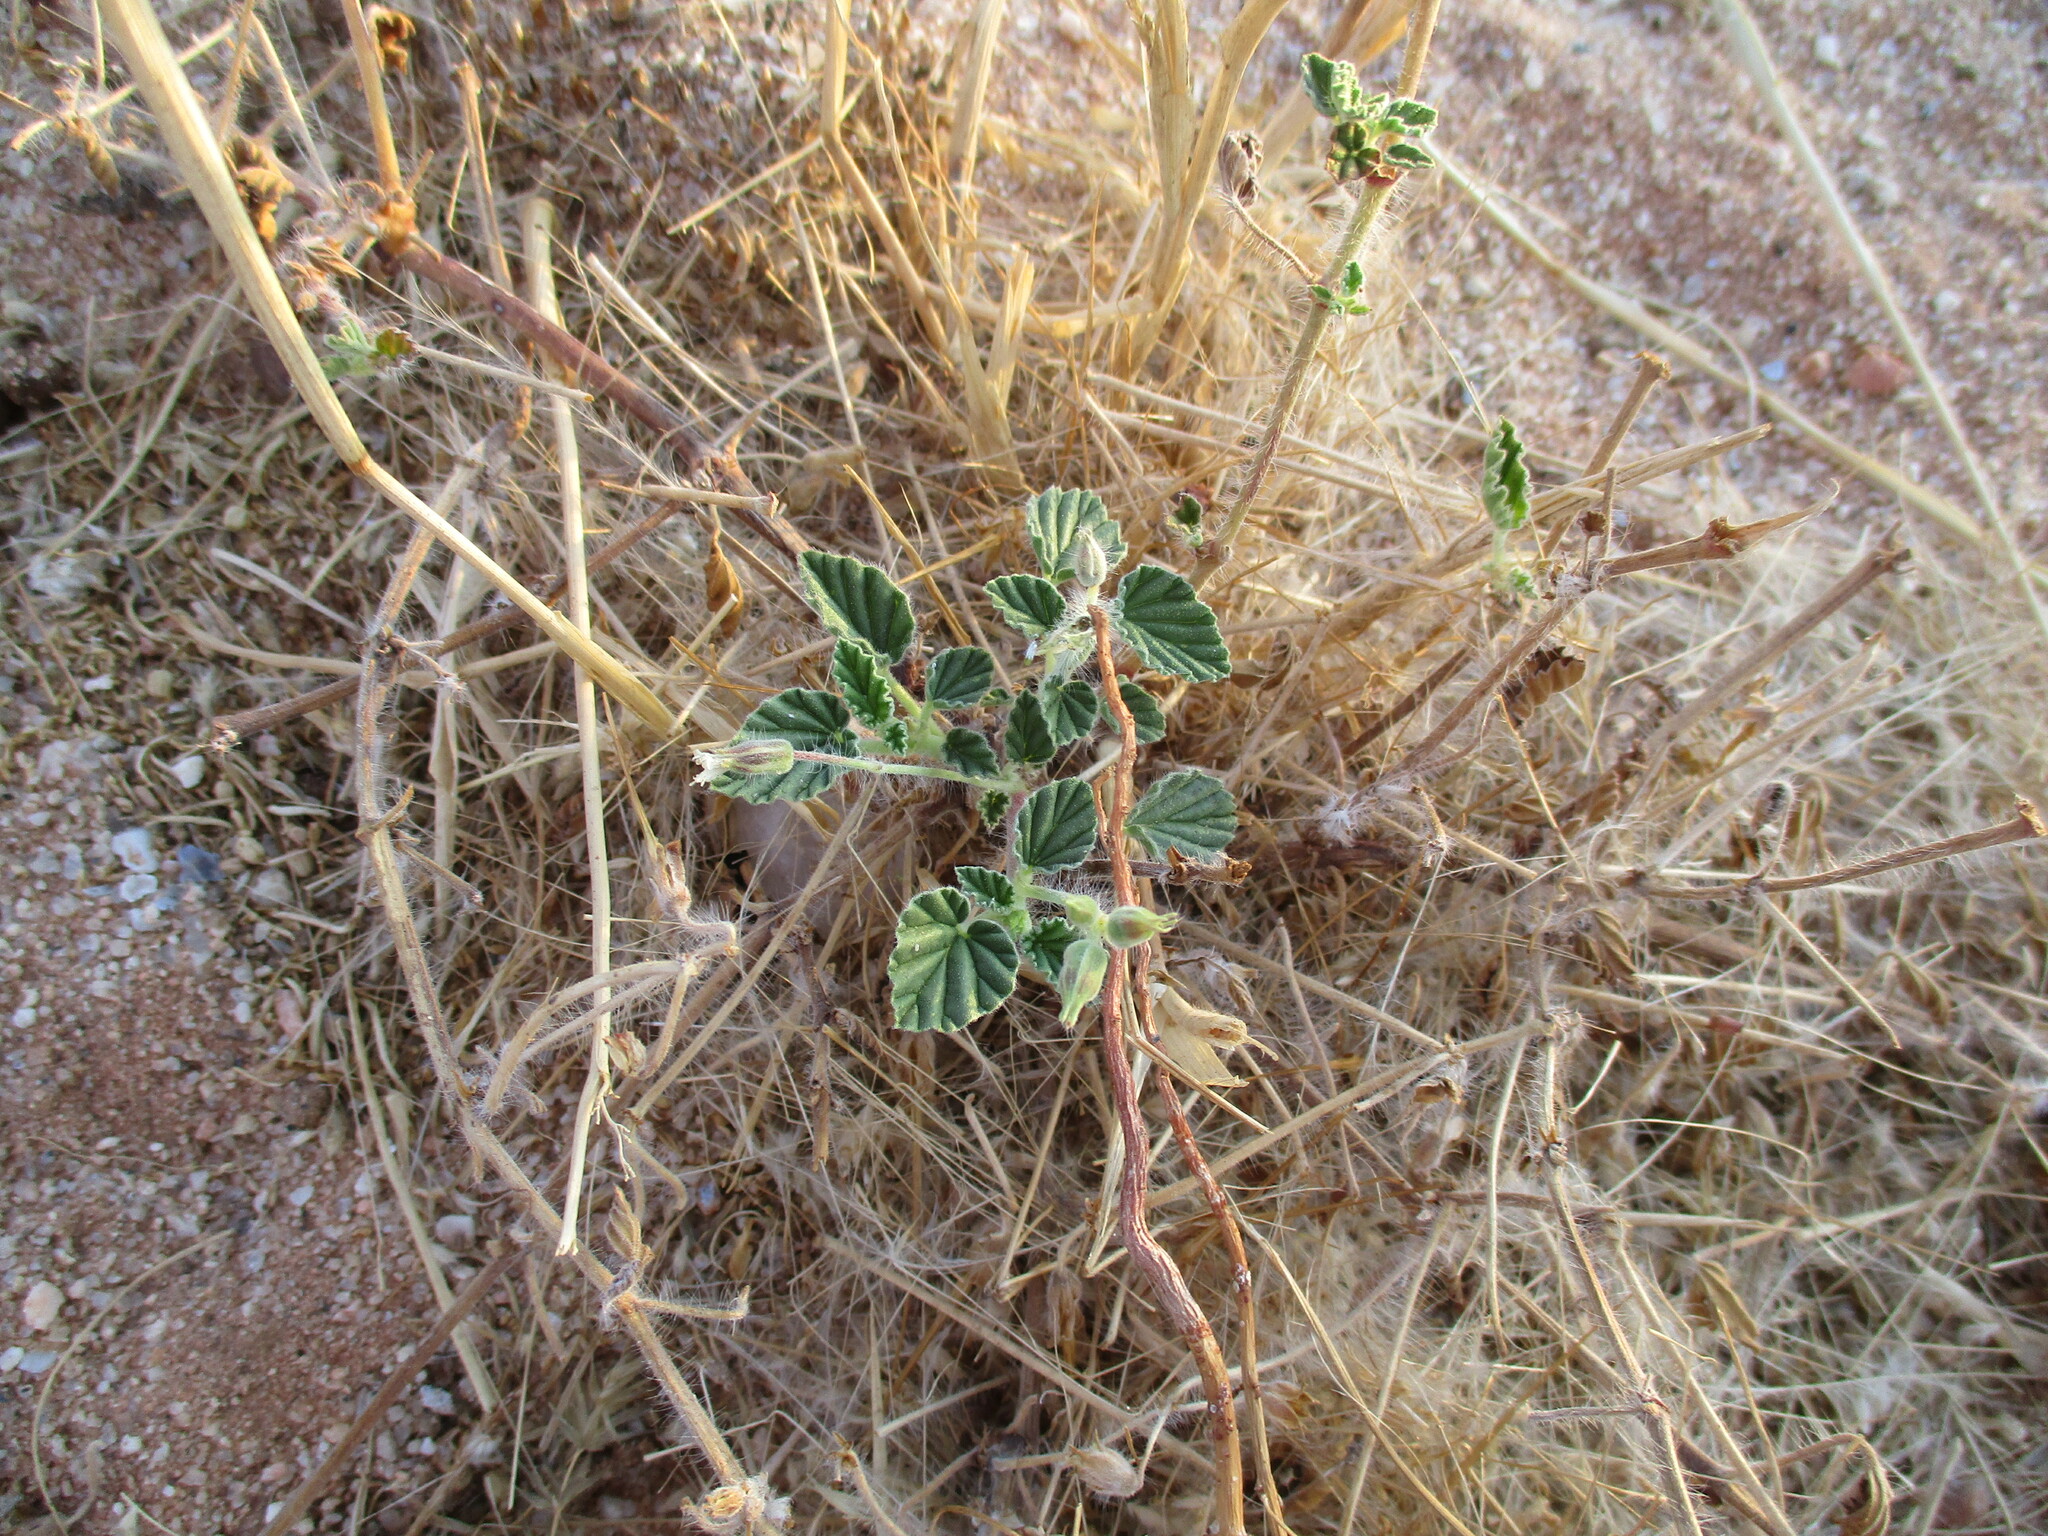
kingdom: Plantae
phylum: Tracheophyta
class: Magnoliopsida
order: Geraniales
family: Geraniaceae
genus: Monsonia
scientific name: Monsonia umbellata
